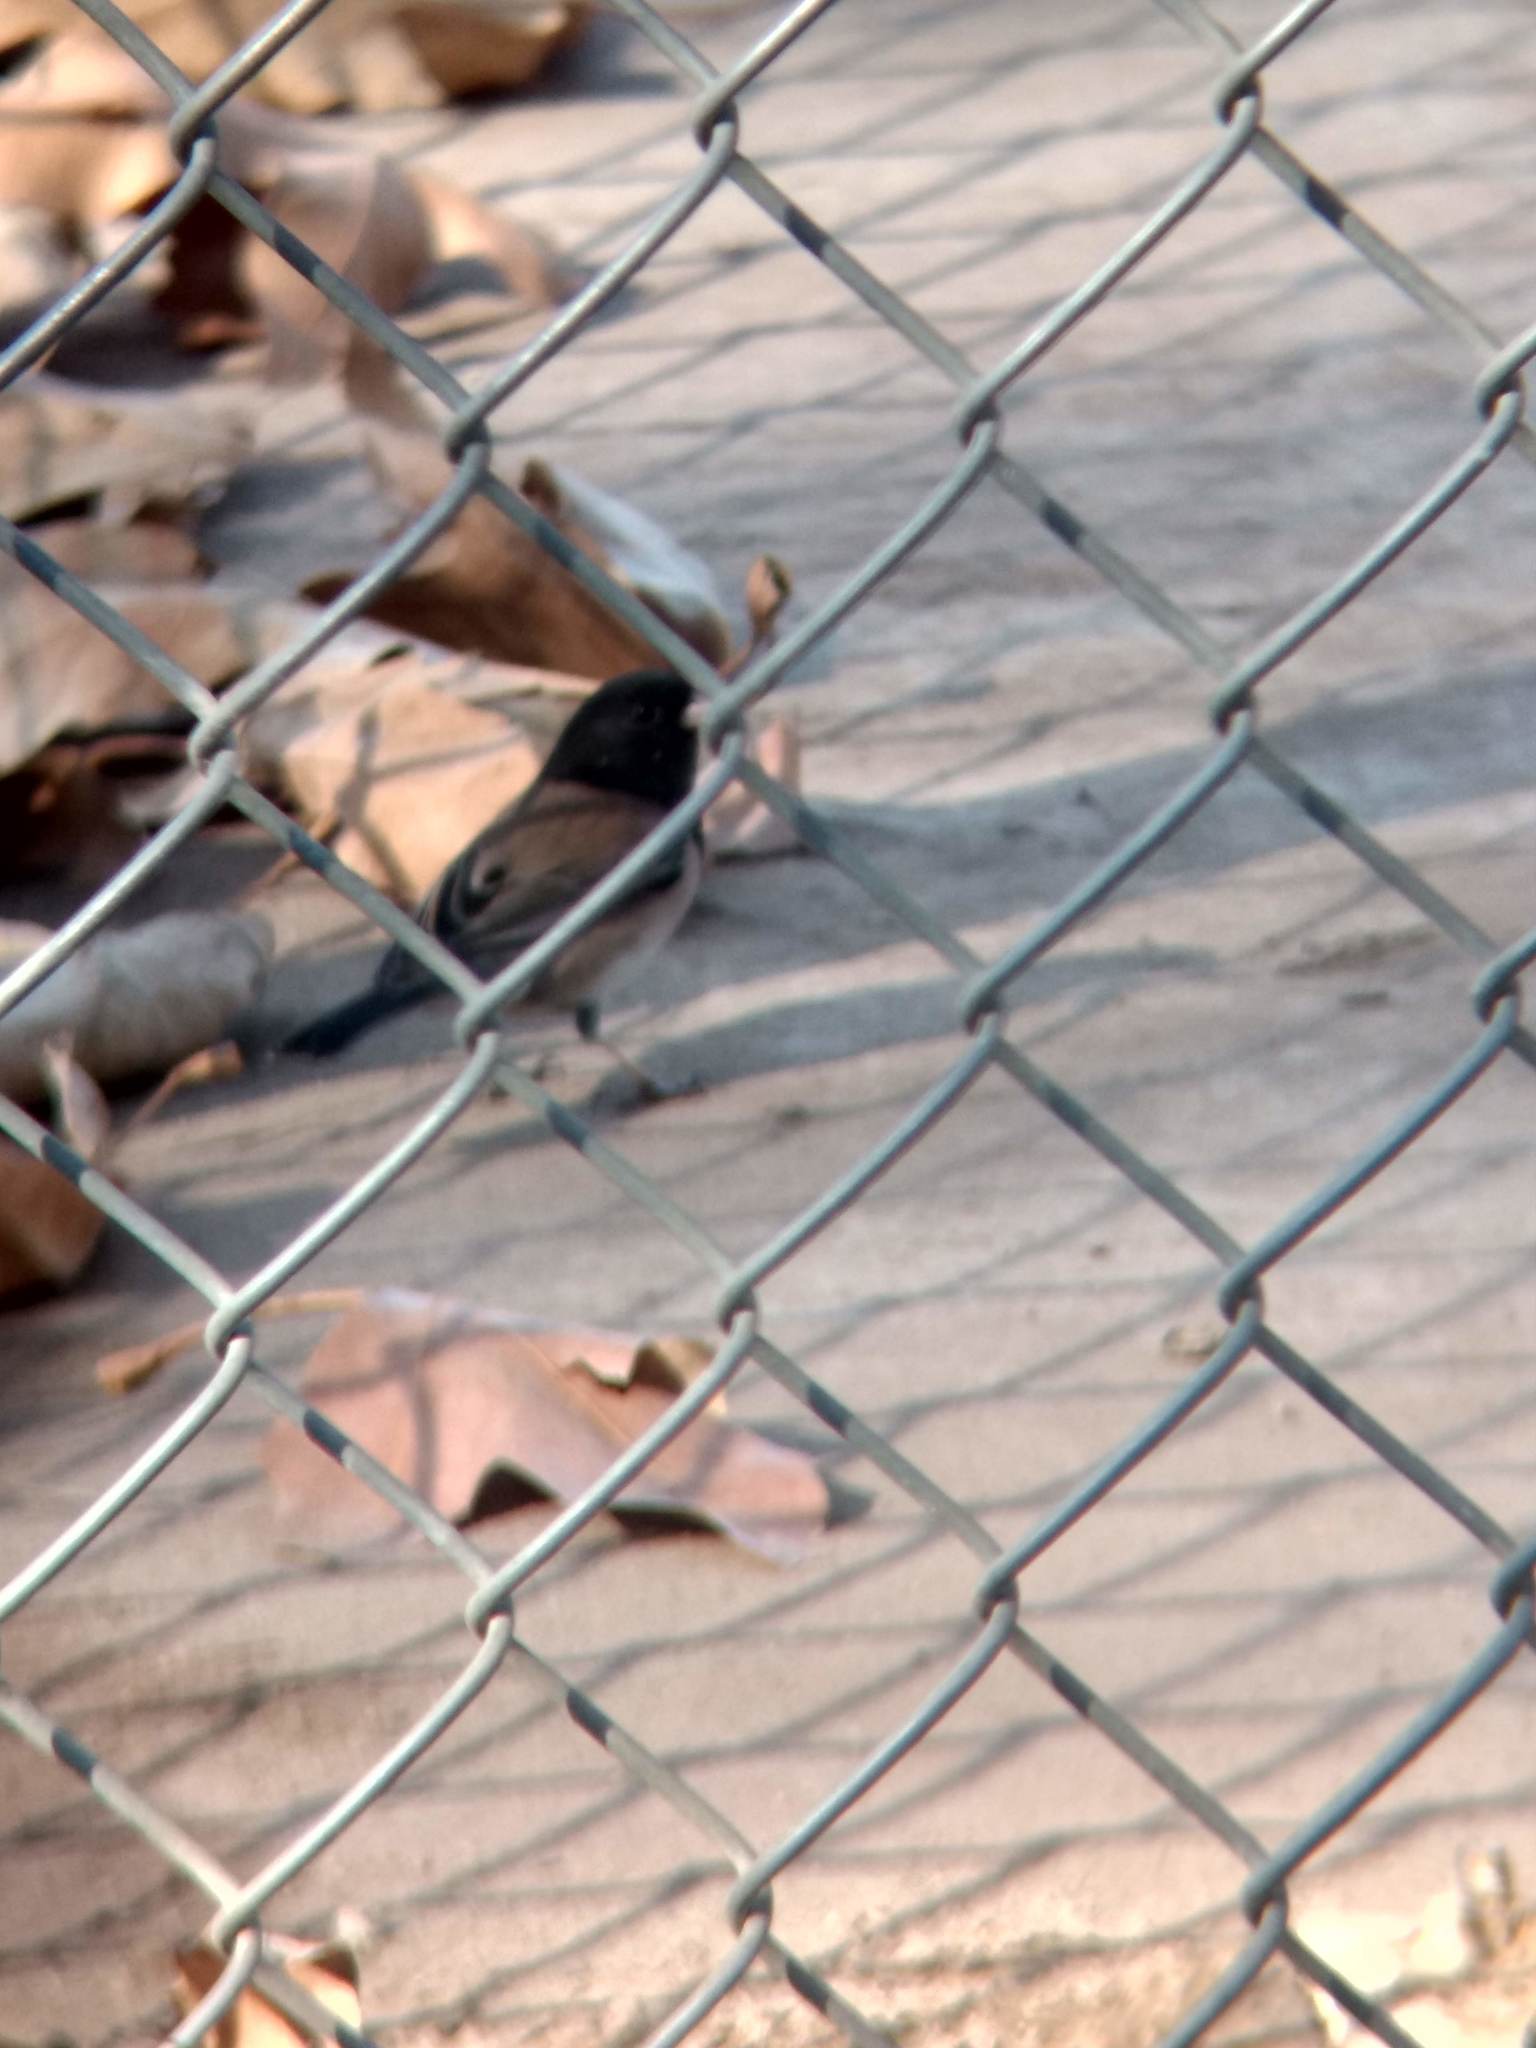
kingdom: Animalia
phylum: Chordata
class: Aves
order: Passeriformes
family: Passerellidae
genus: Junco
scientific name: Junco hyemalis
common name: Dark-eyed junco
